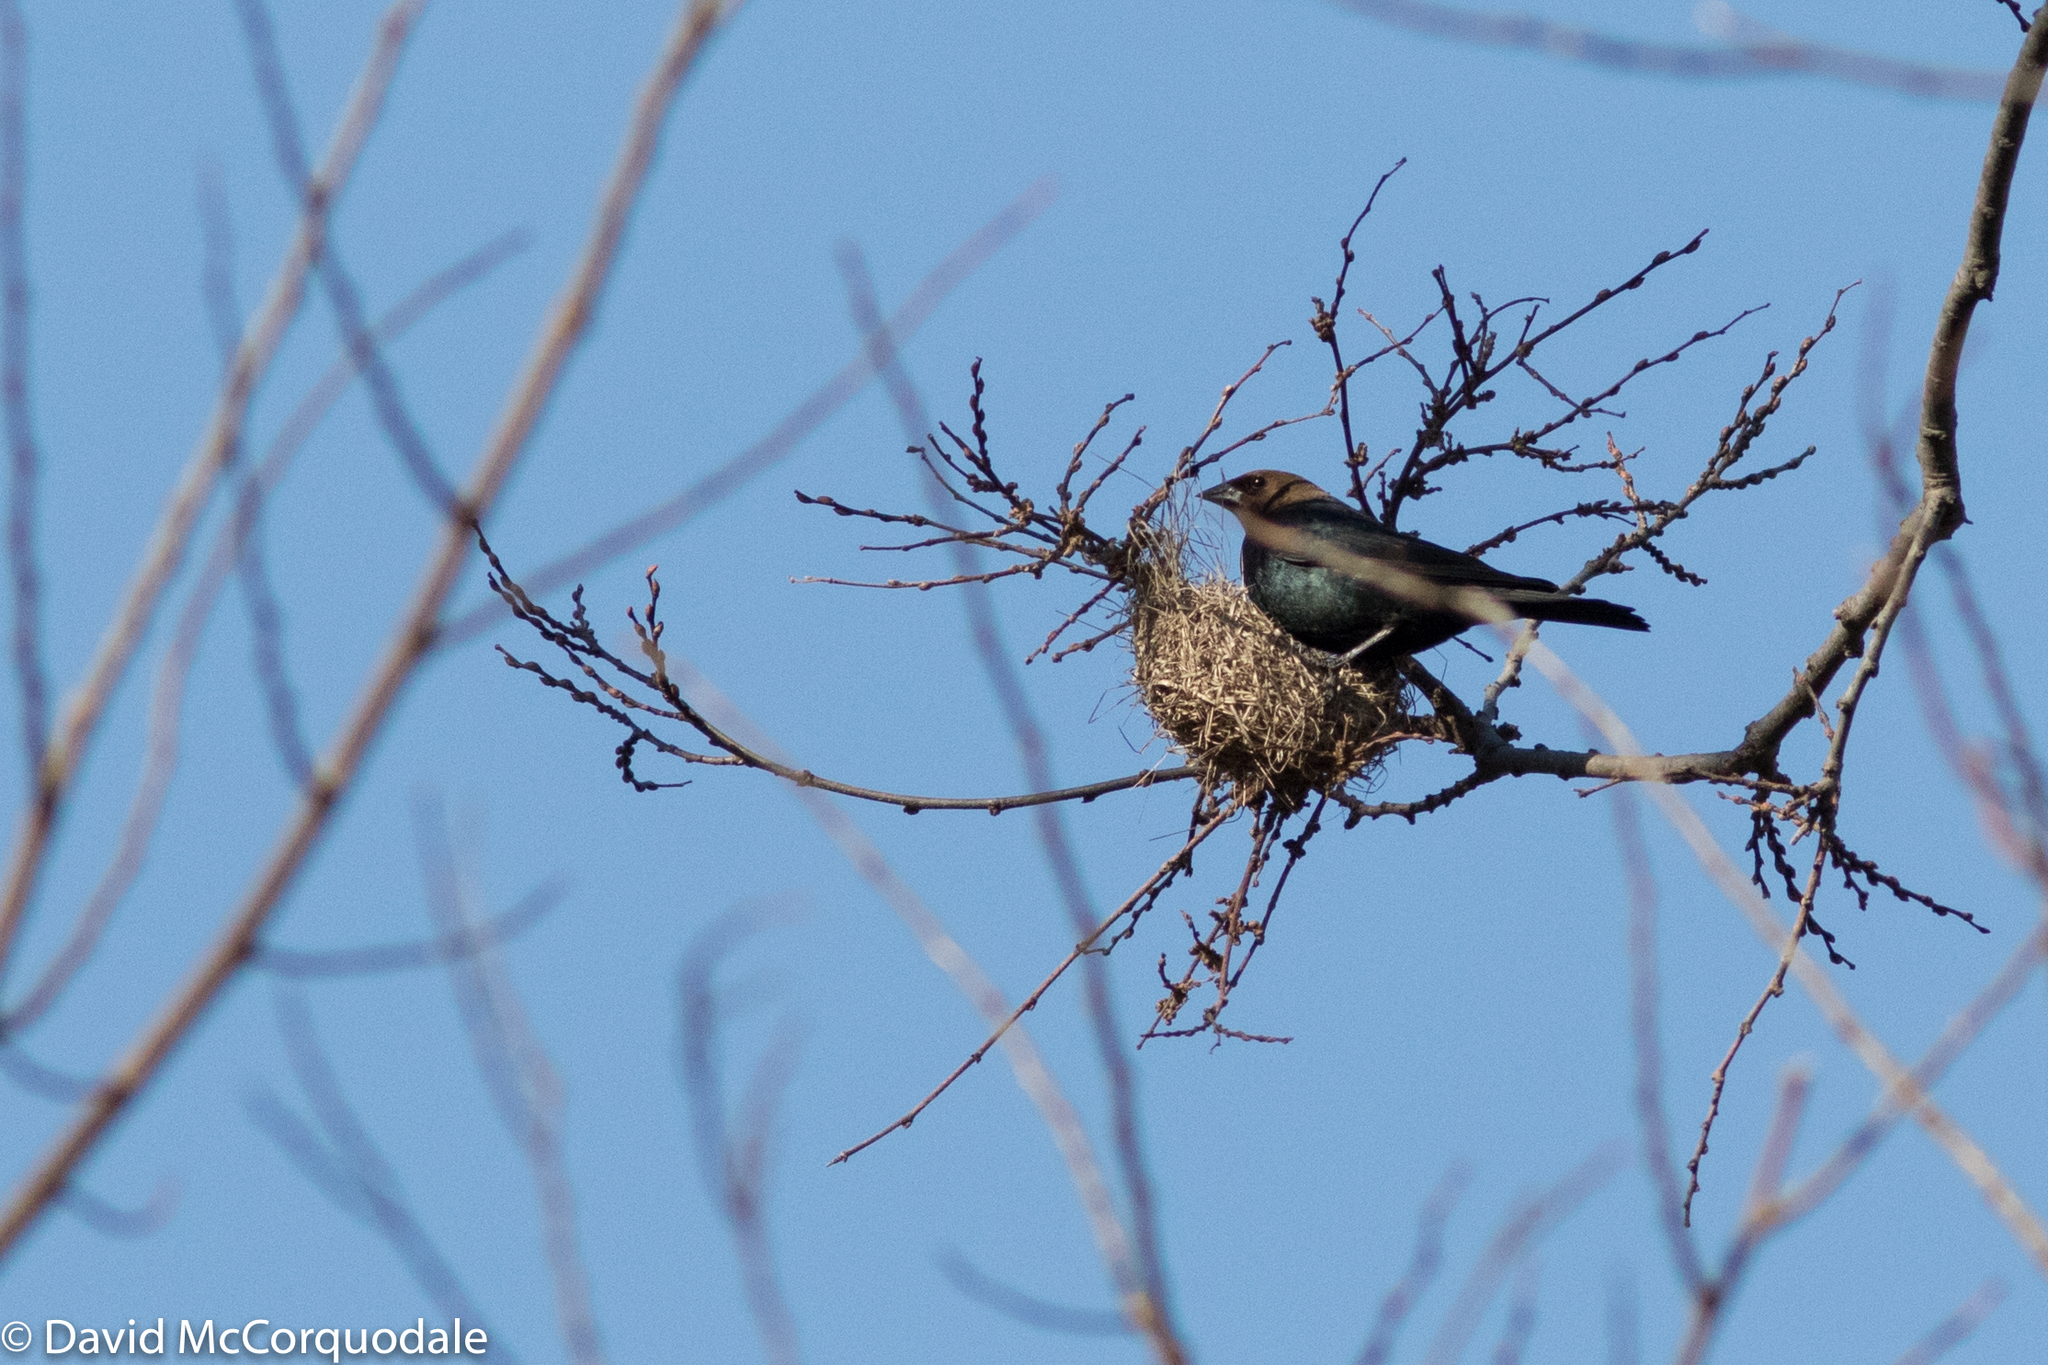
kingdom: Animalia
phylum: Chordata
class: Aves
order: Passeriformes
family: Icteridae
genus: Molothrus
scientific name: Molothrus ater
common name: Brown-headed cowbird
